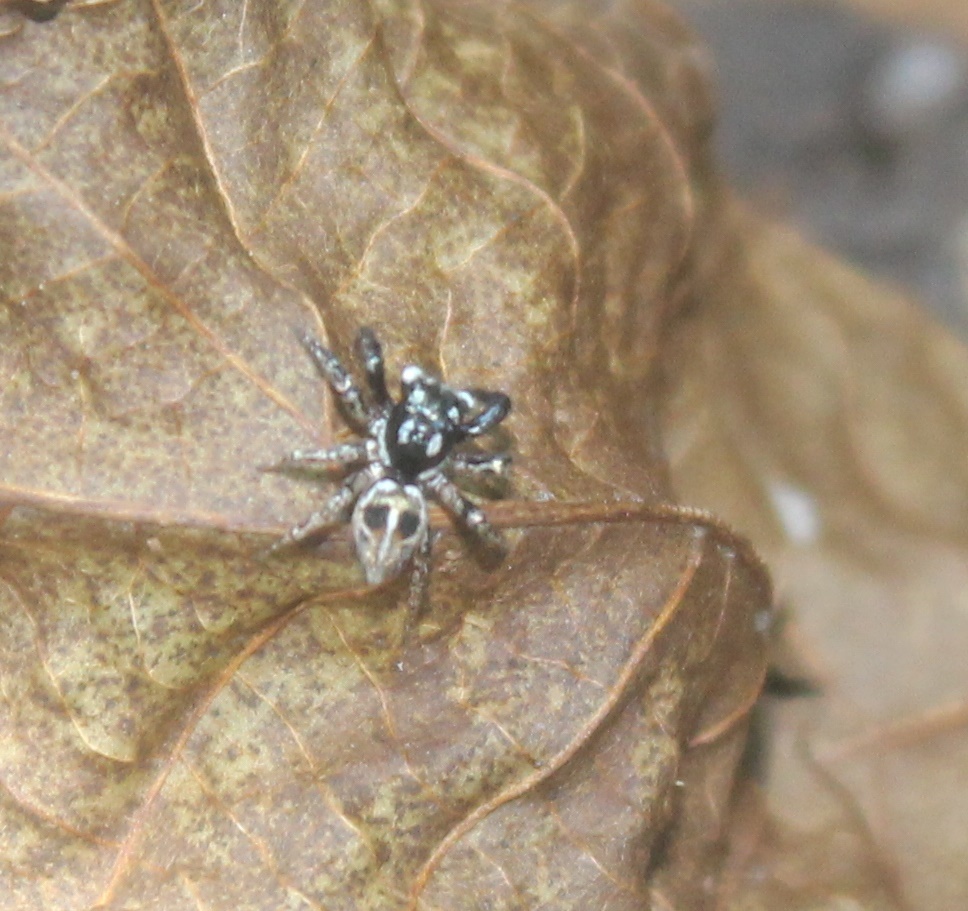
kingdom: Animalia
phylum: Arthropoda
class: Arachnida
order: Araneae
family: Salticidae
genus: Anasaitis
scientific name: Anasaitis canosa
